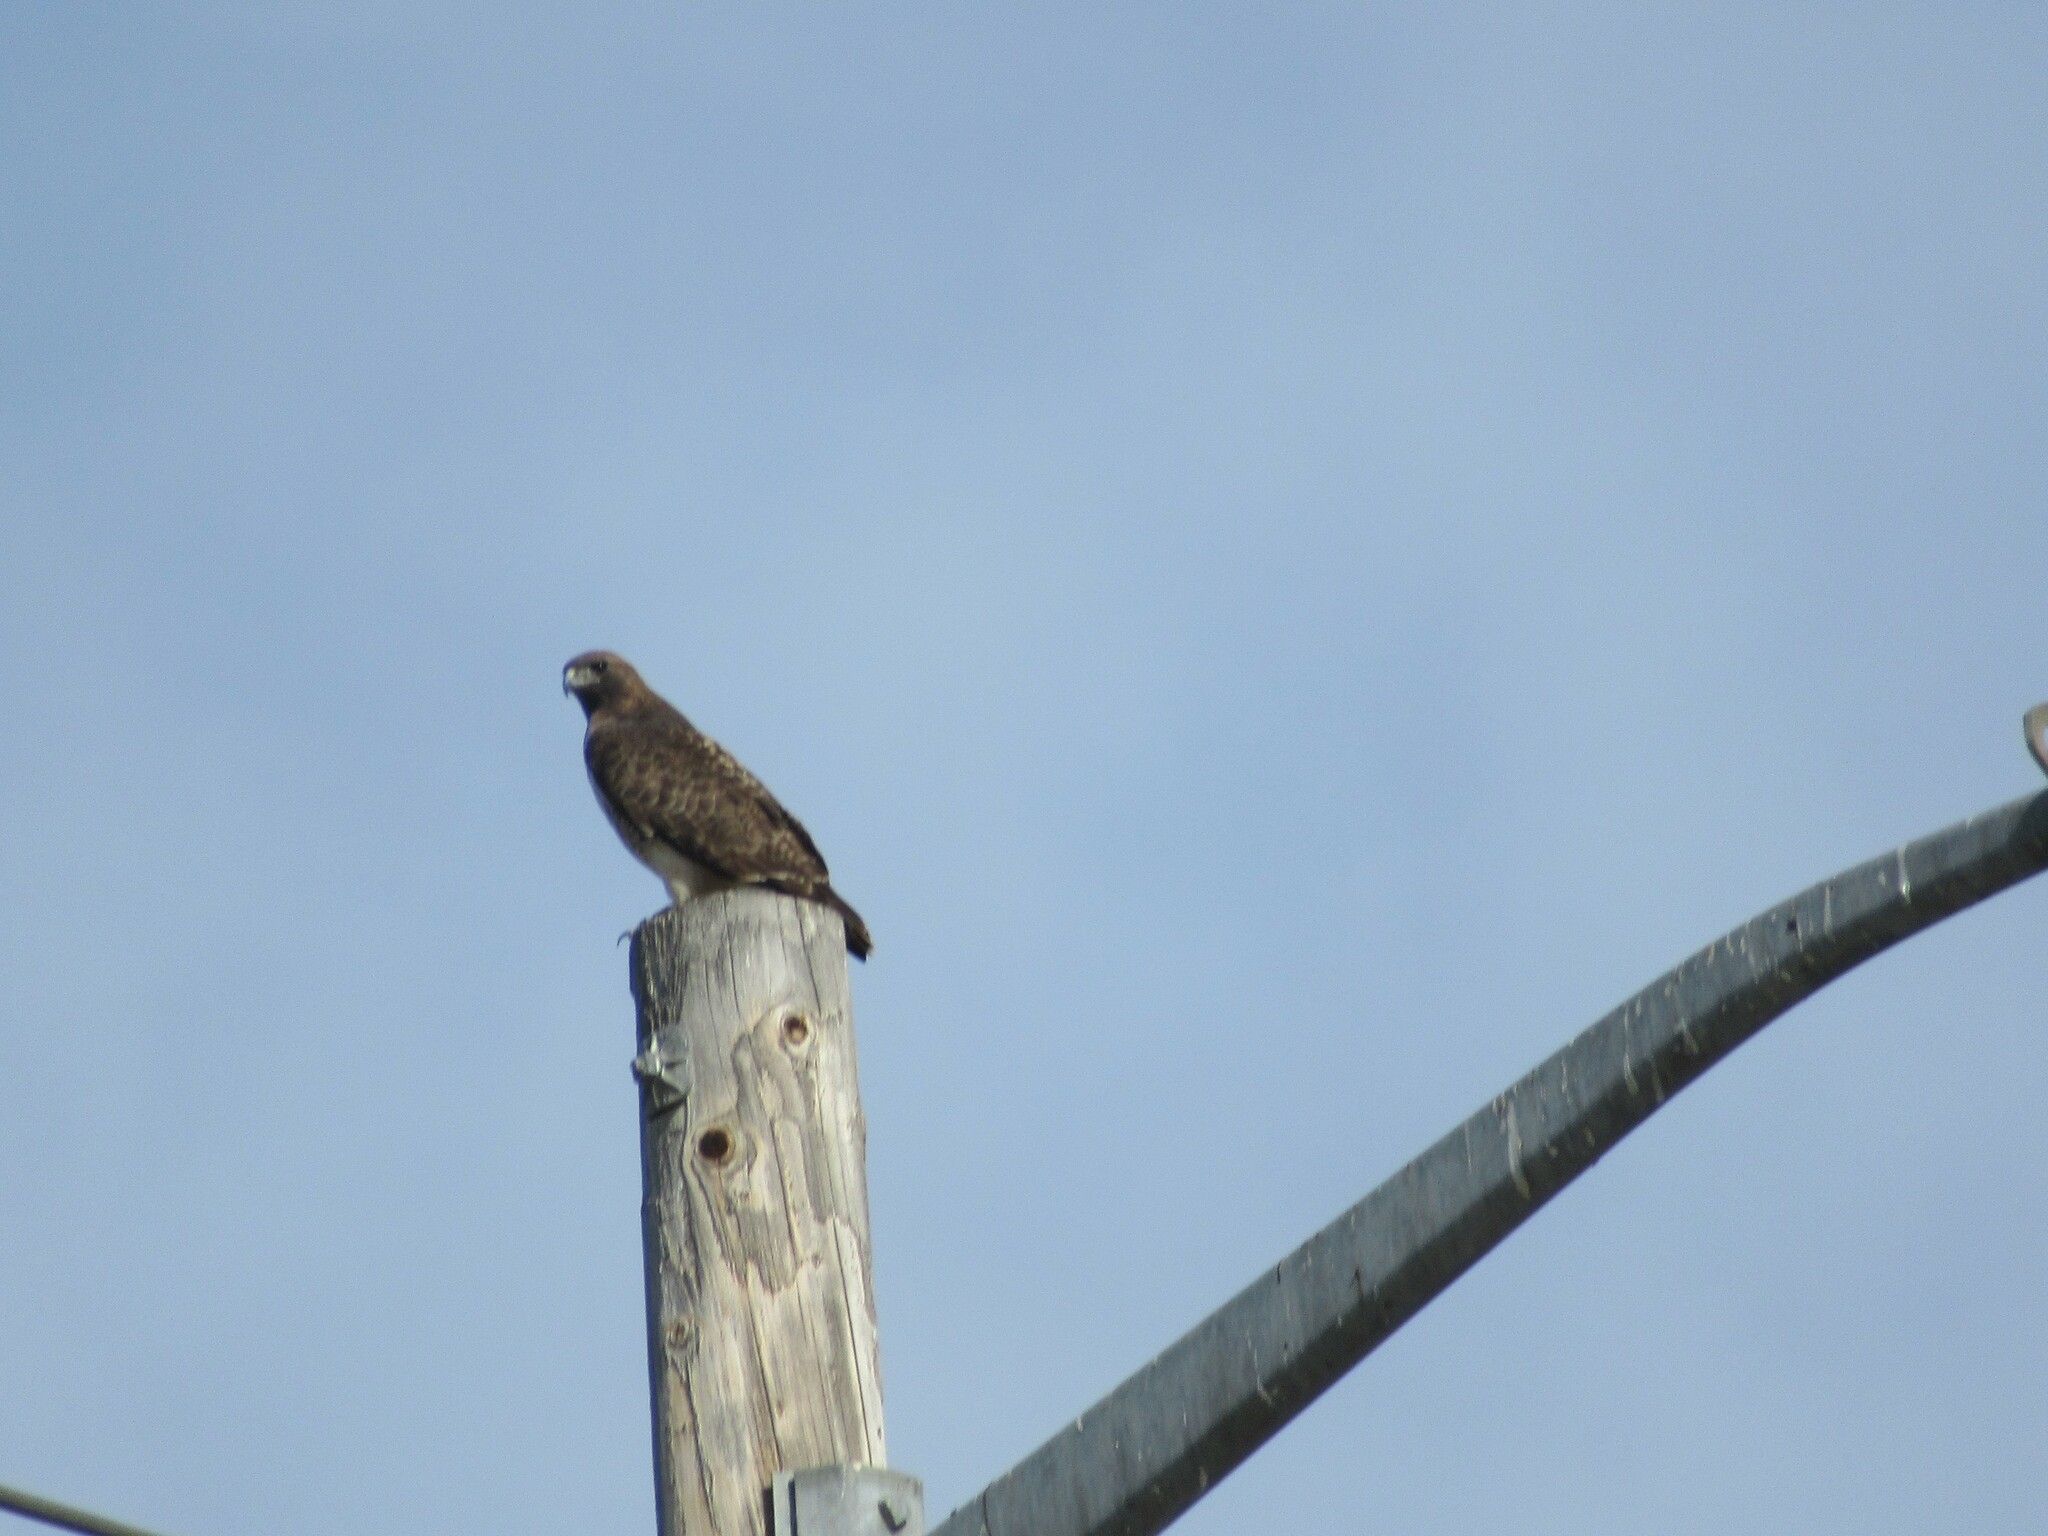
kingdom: Animalia
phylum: Chordata
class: Aves
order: Accipitriformes
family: Accipitridae
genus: Buteo
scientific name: Buteo jamaicensis
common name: Red-tailed hawk
